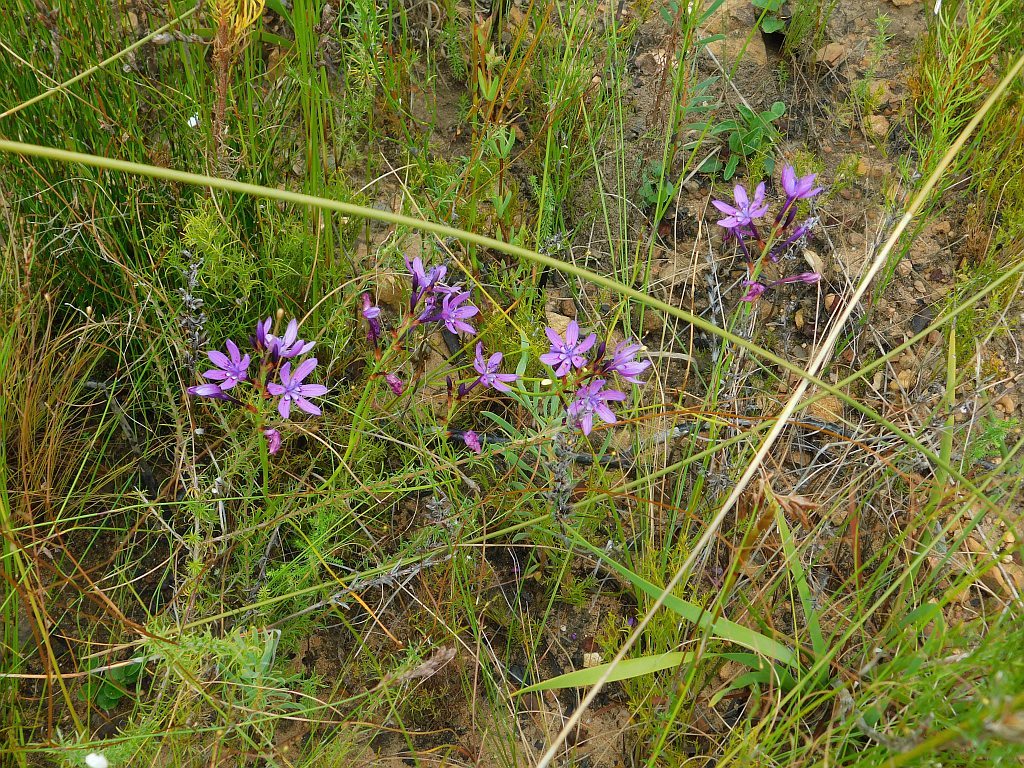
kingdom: Plantae
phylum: Tracheophyta
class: Liliopsida
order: Asparagales
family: Iridaceae
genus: Thereianthus
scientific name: Thereianthus bracteolatus
